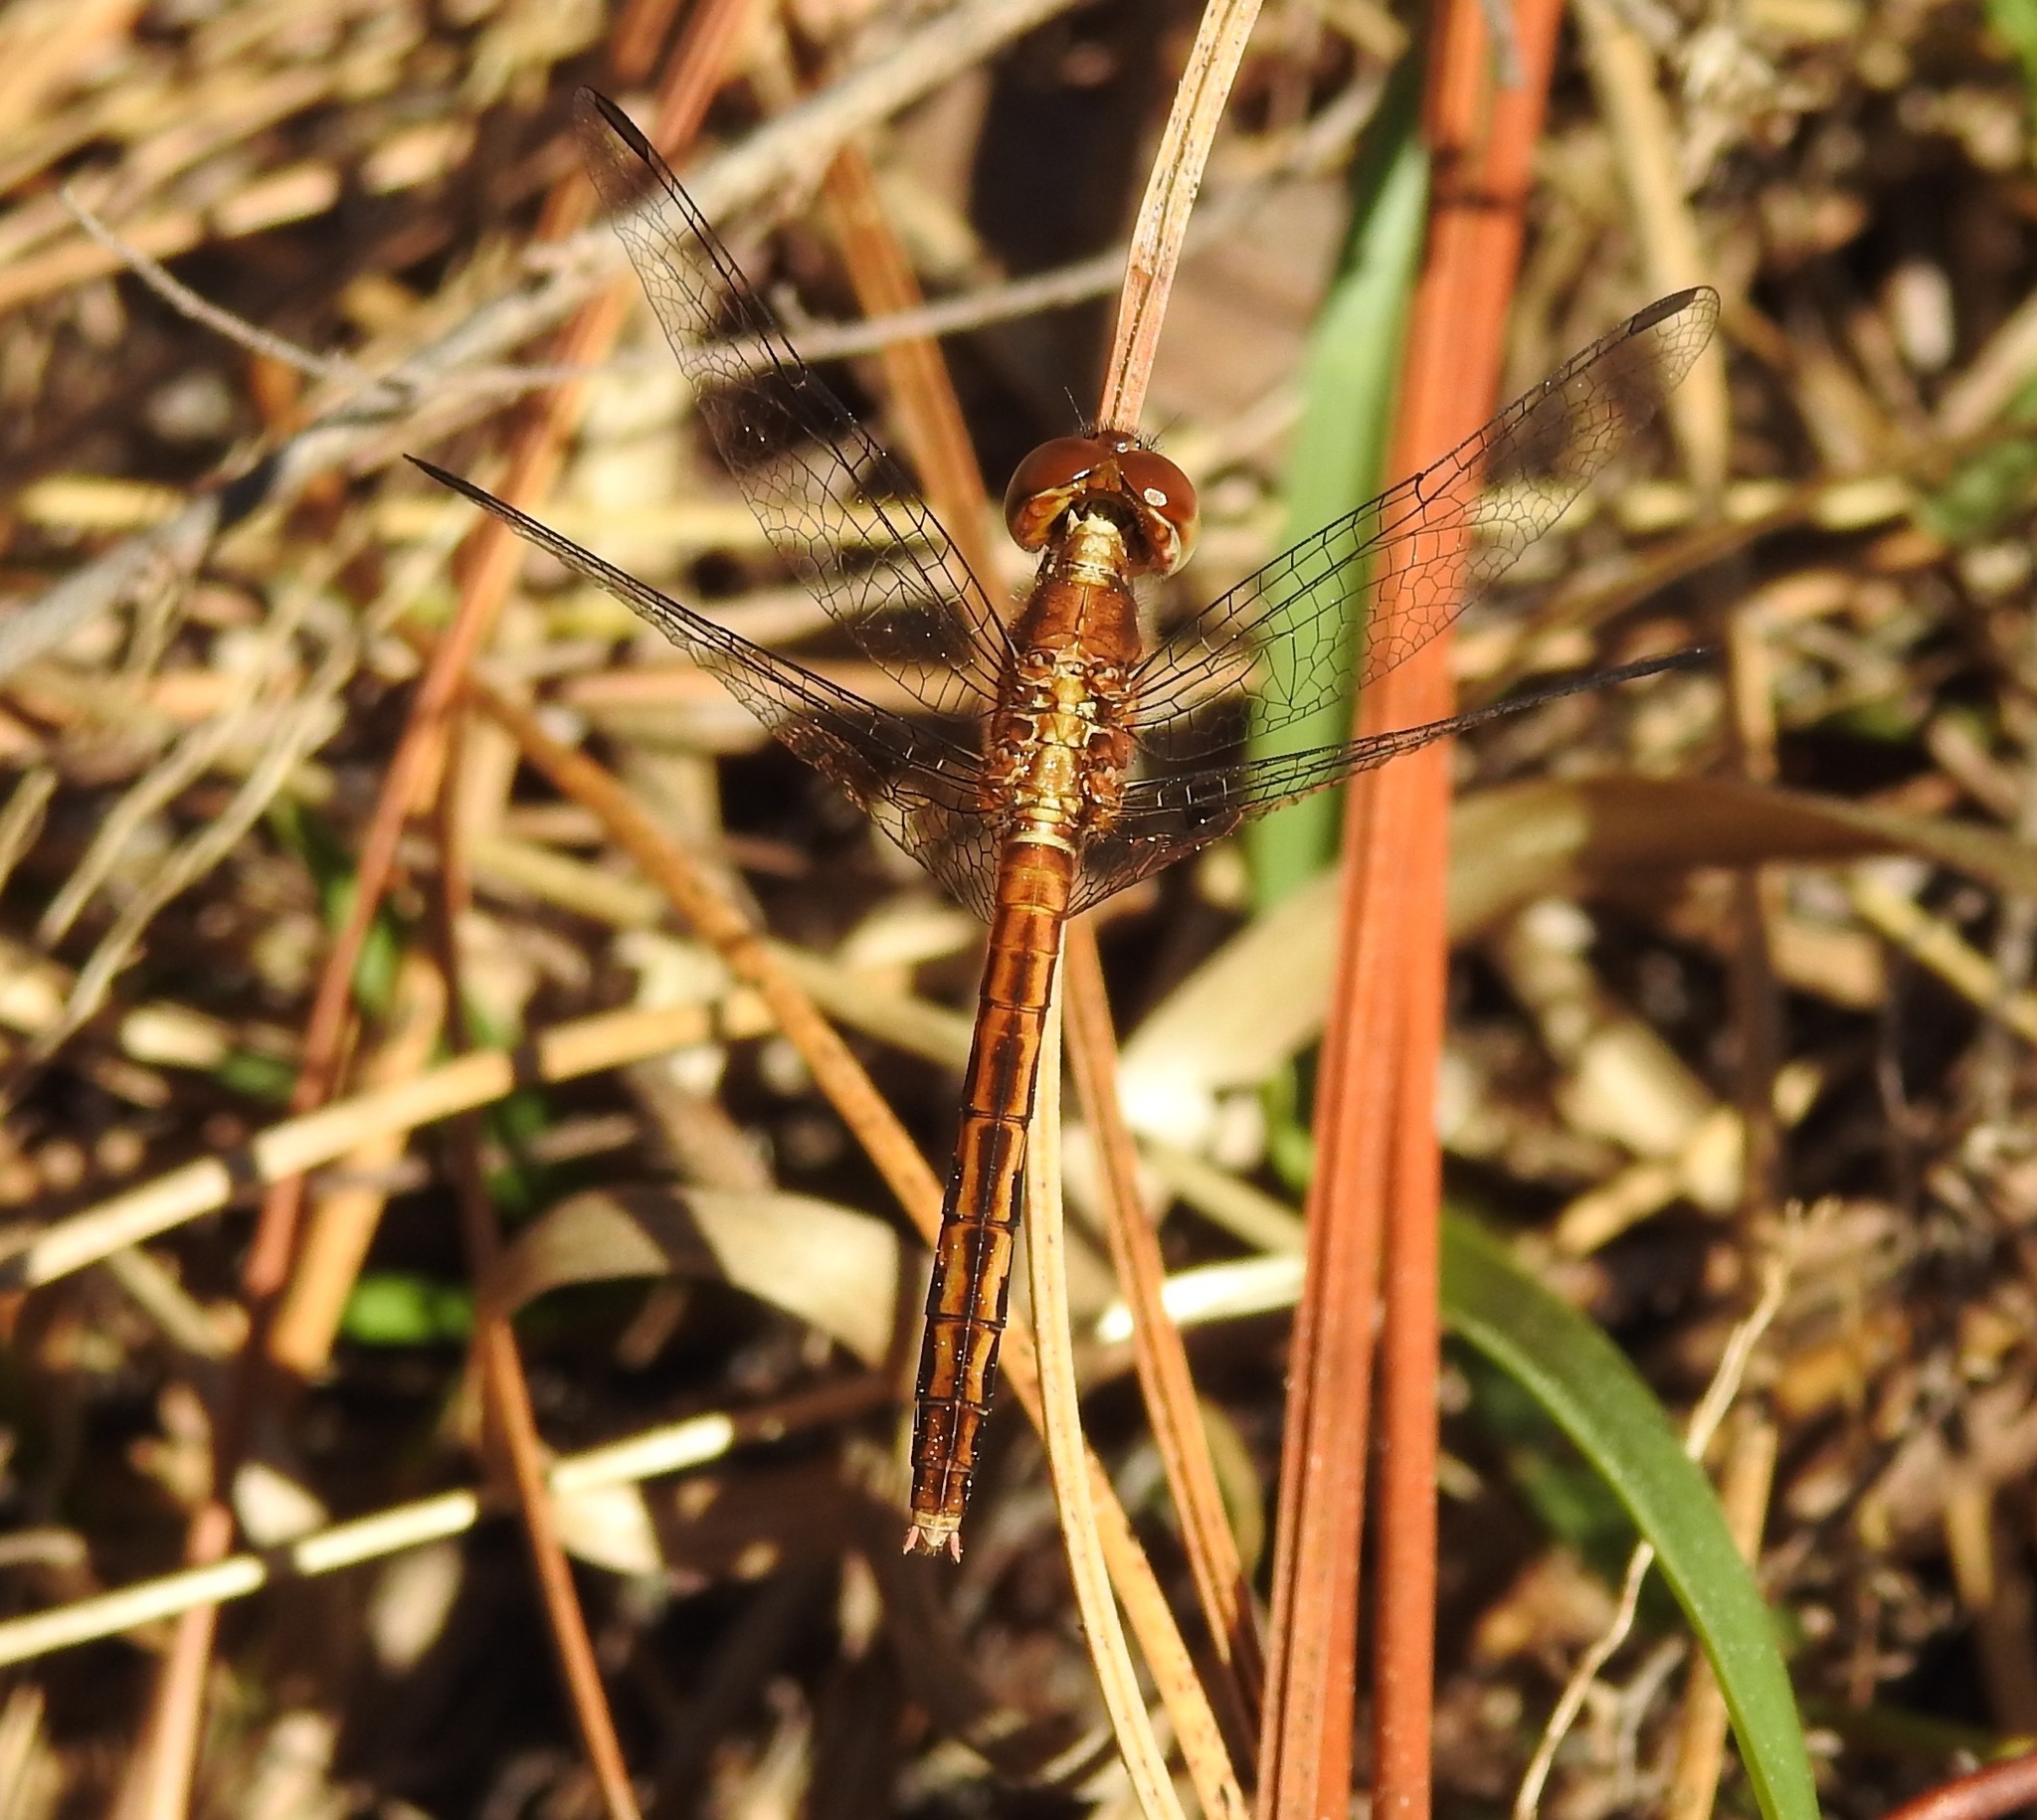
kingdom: Animalia
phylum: Arthropoda
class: Insecta
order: Odonata
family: Libellulidae
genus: Erythrodiplax
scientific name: Erythrodiplax minuscula
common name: Little blue dragonlet
